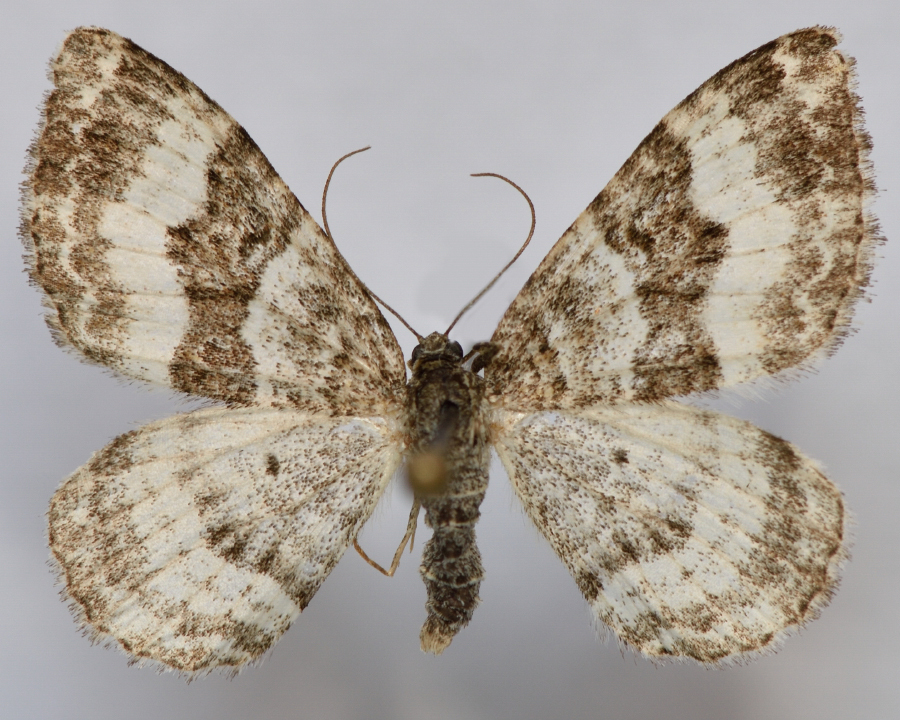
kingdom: Animalia
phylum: Arthropoda
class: Insecta
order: Lepidoptera
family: Geometridae
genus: Epirrhoe
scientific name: Epirrhoe rivata
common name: Wood carpet
